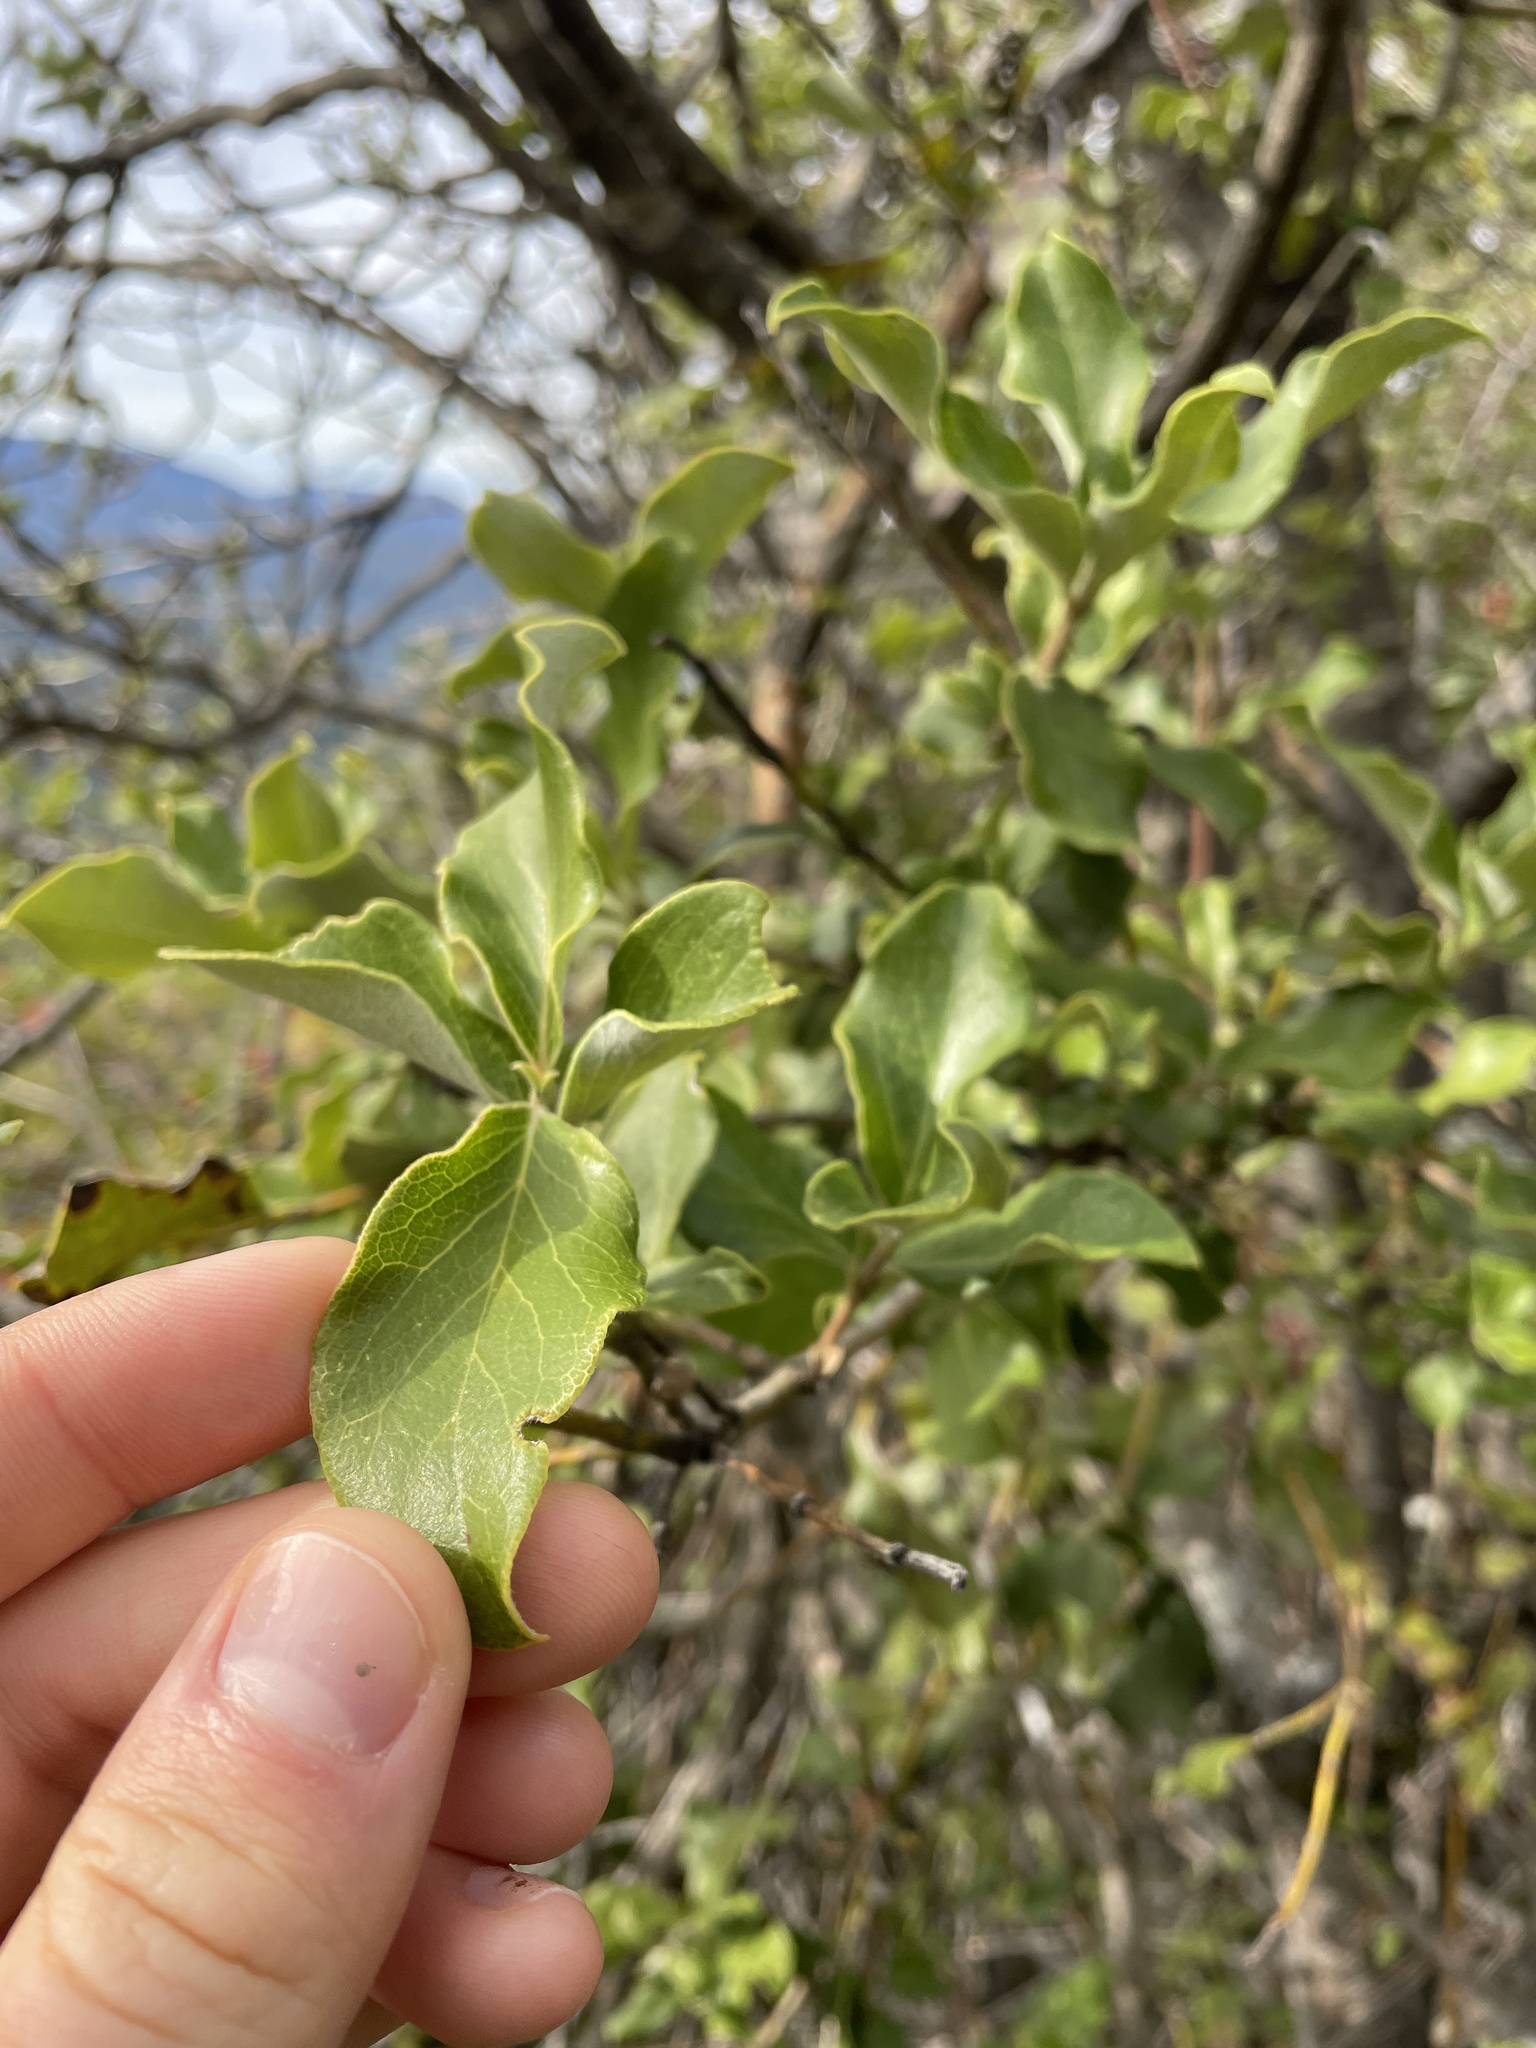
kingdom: Plantae
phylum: Tracheophyta
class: Magnoliopsida
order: Garryales
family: Garryaceae
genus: Garrya
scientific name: Garrya elliptica
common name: Silk-tassel
